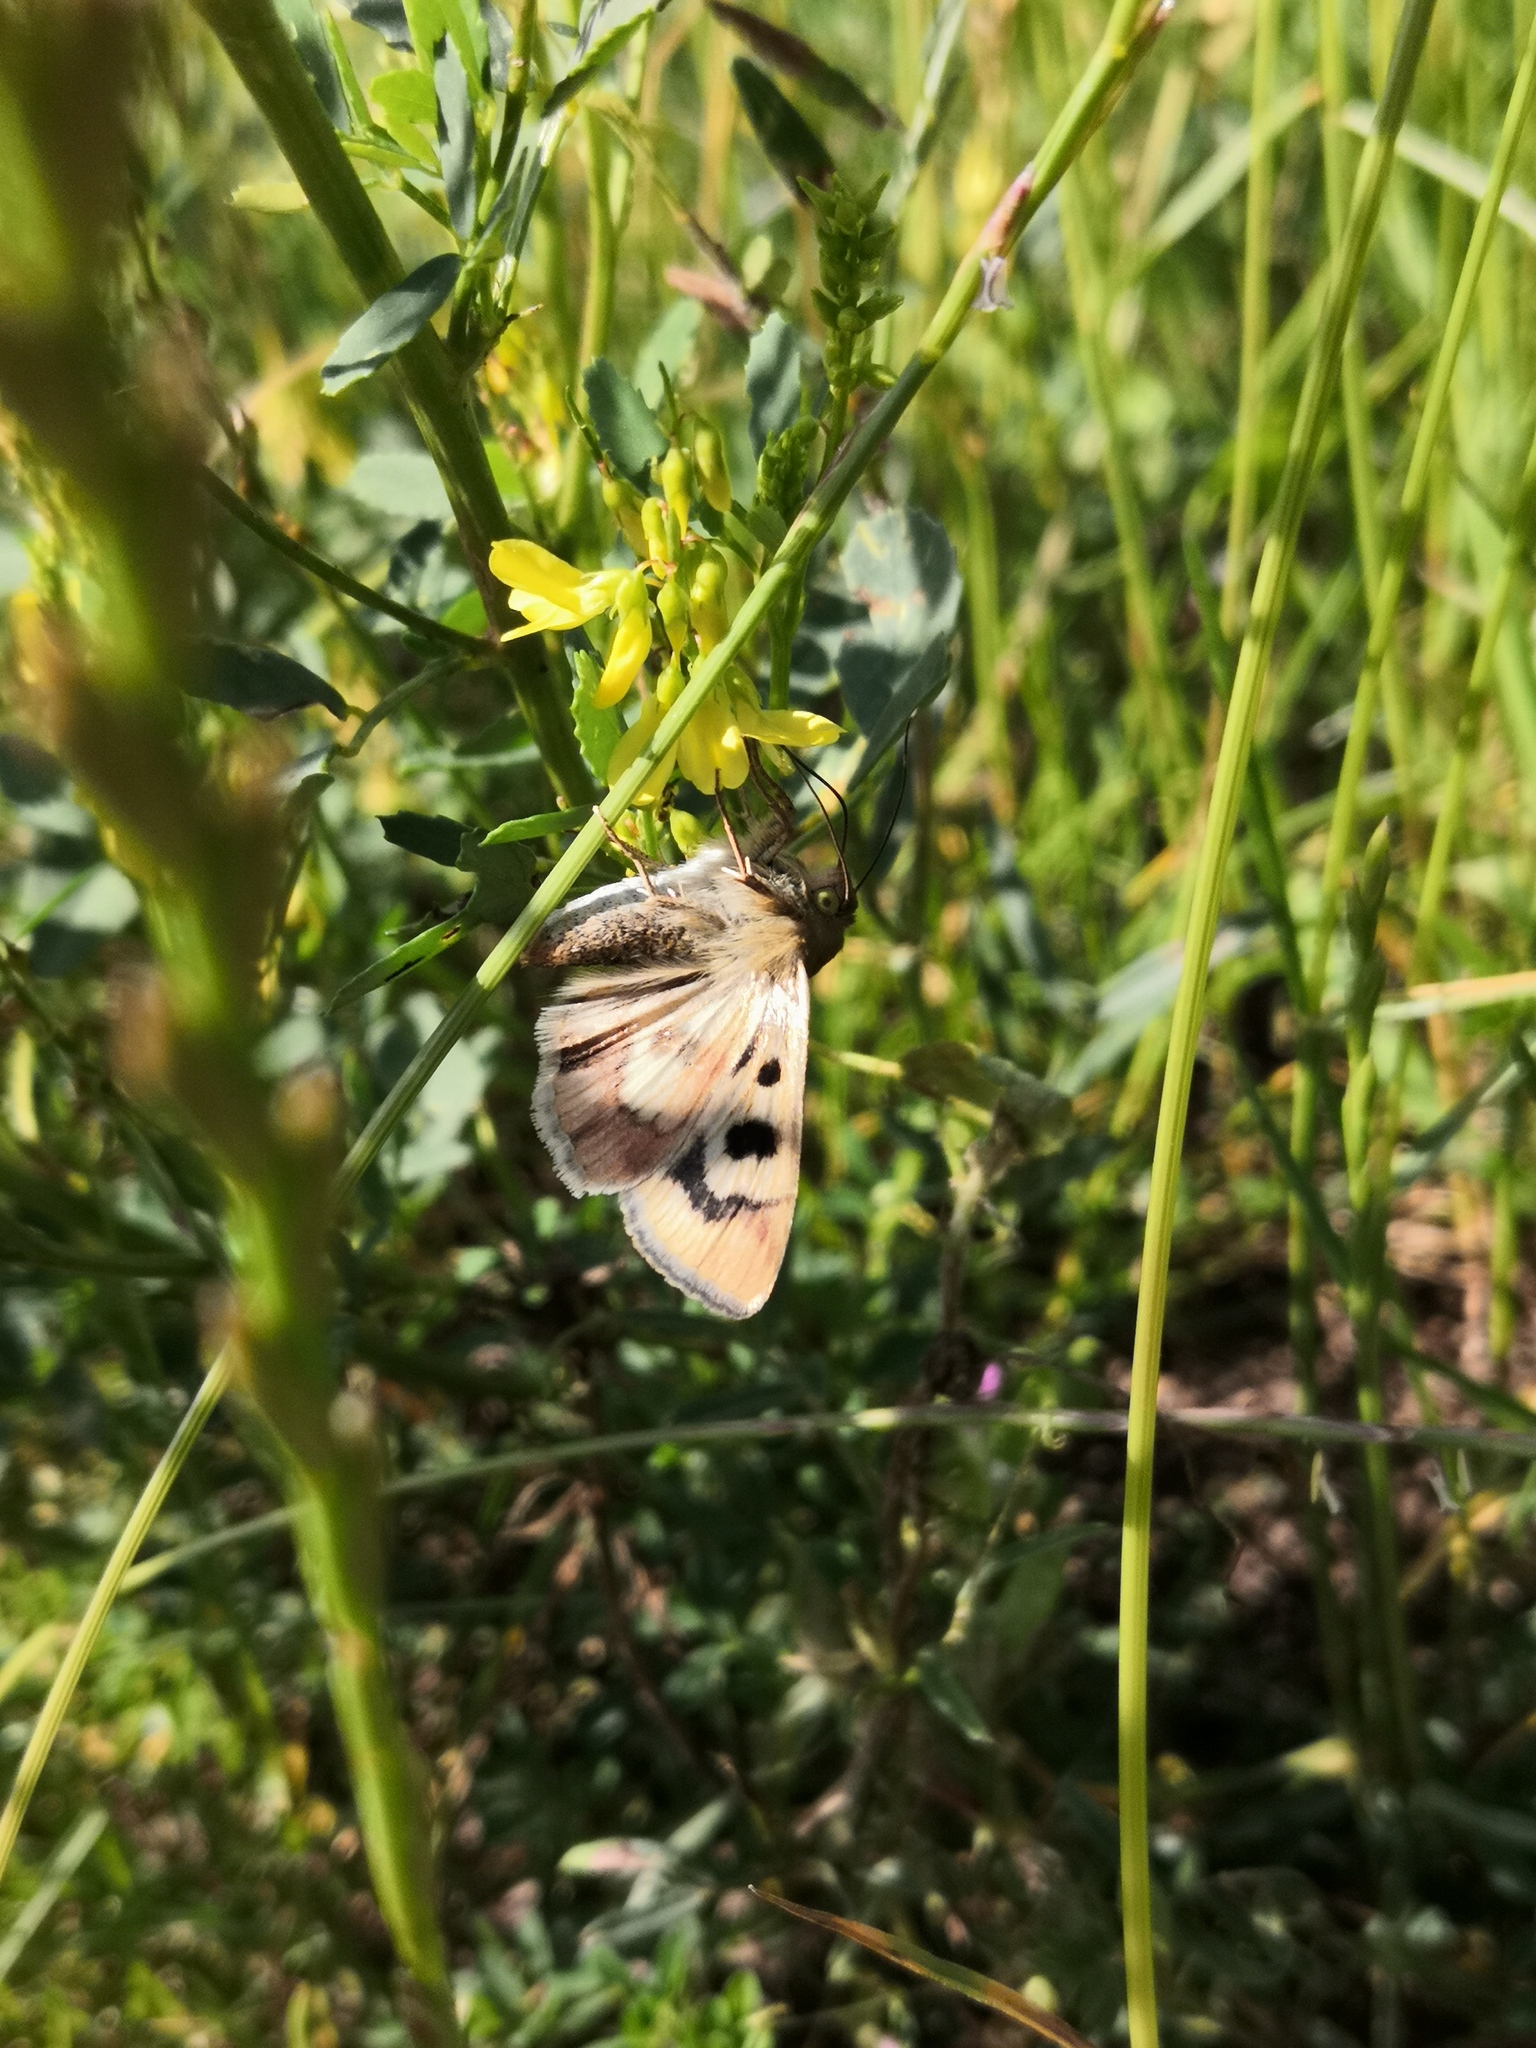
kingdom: Animalia
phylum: Arthropoda
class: Insecta
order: Lepidoptera
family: Noctuidae
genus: Heliothis
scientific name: Heliothis viriplaca
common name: Marbled clover
